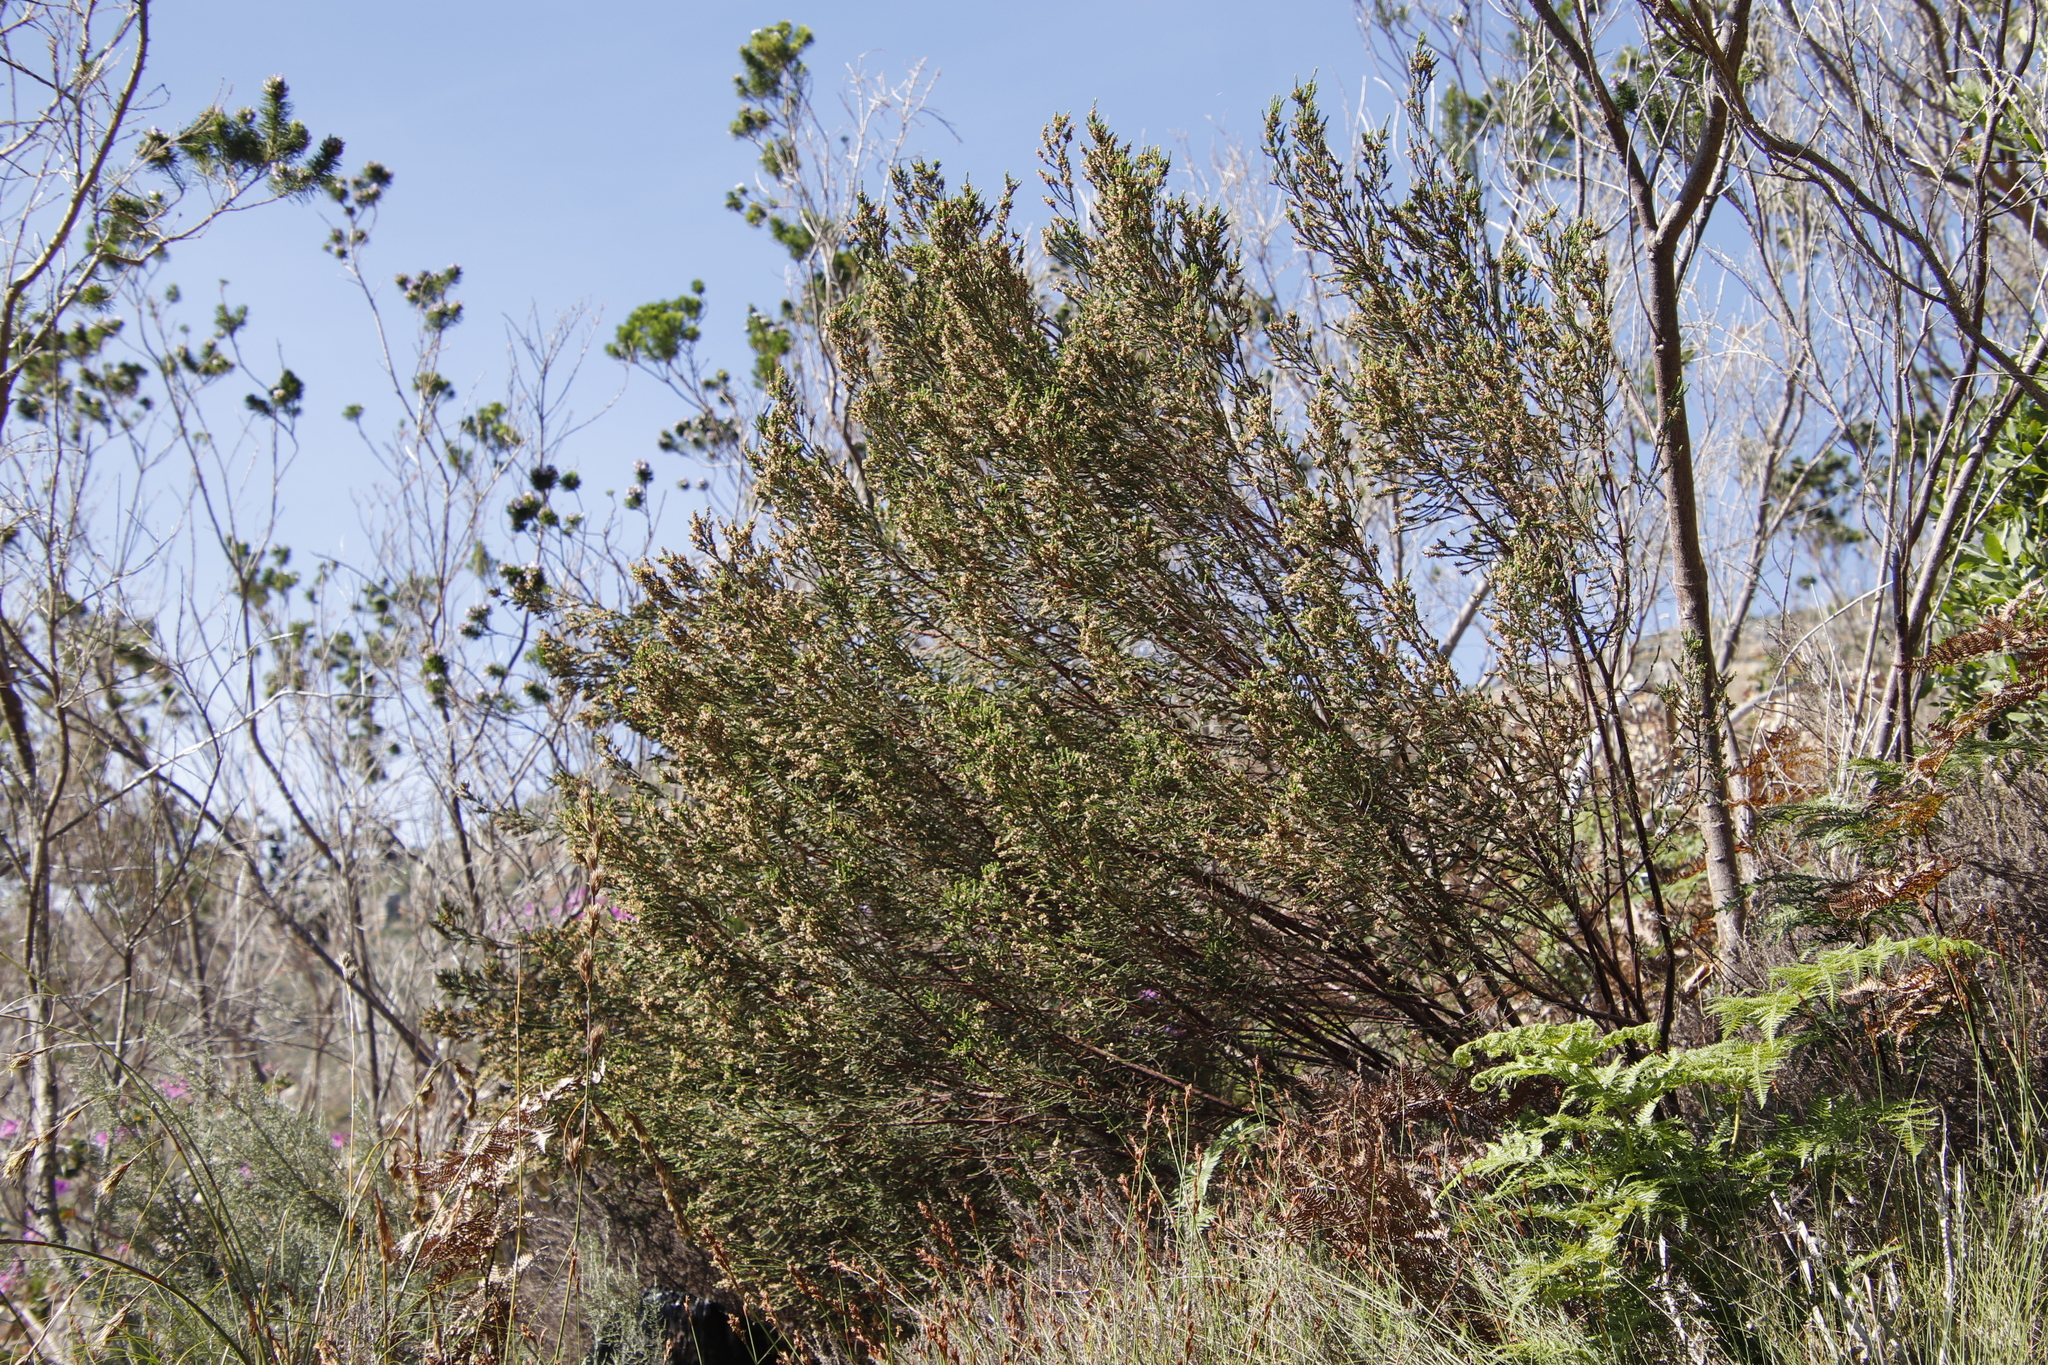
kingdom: Plantae
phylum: Tracheophyta
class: Magnoliopsida
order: Malvales
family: Thymelaeaceae
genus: Passerina
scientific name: Passerina corymbosa
